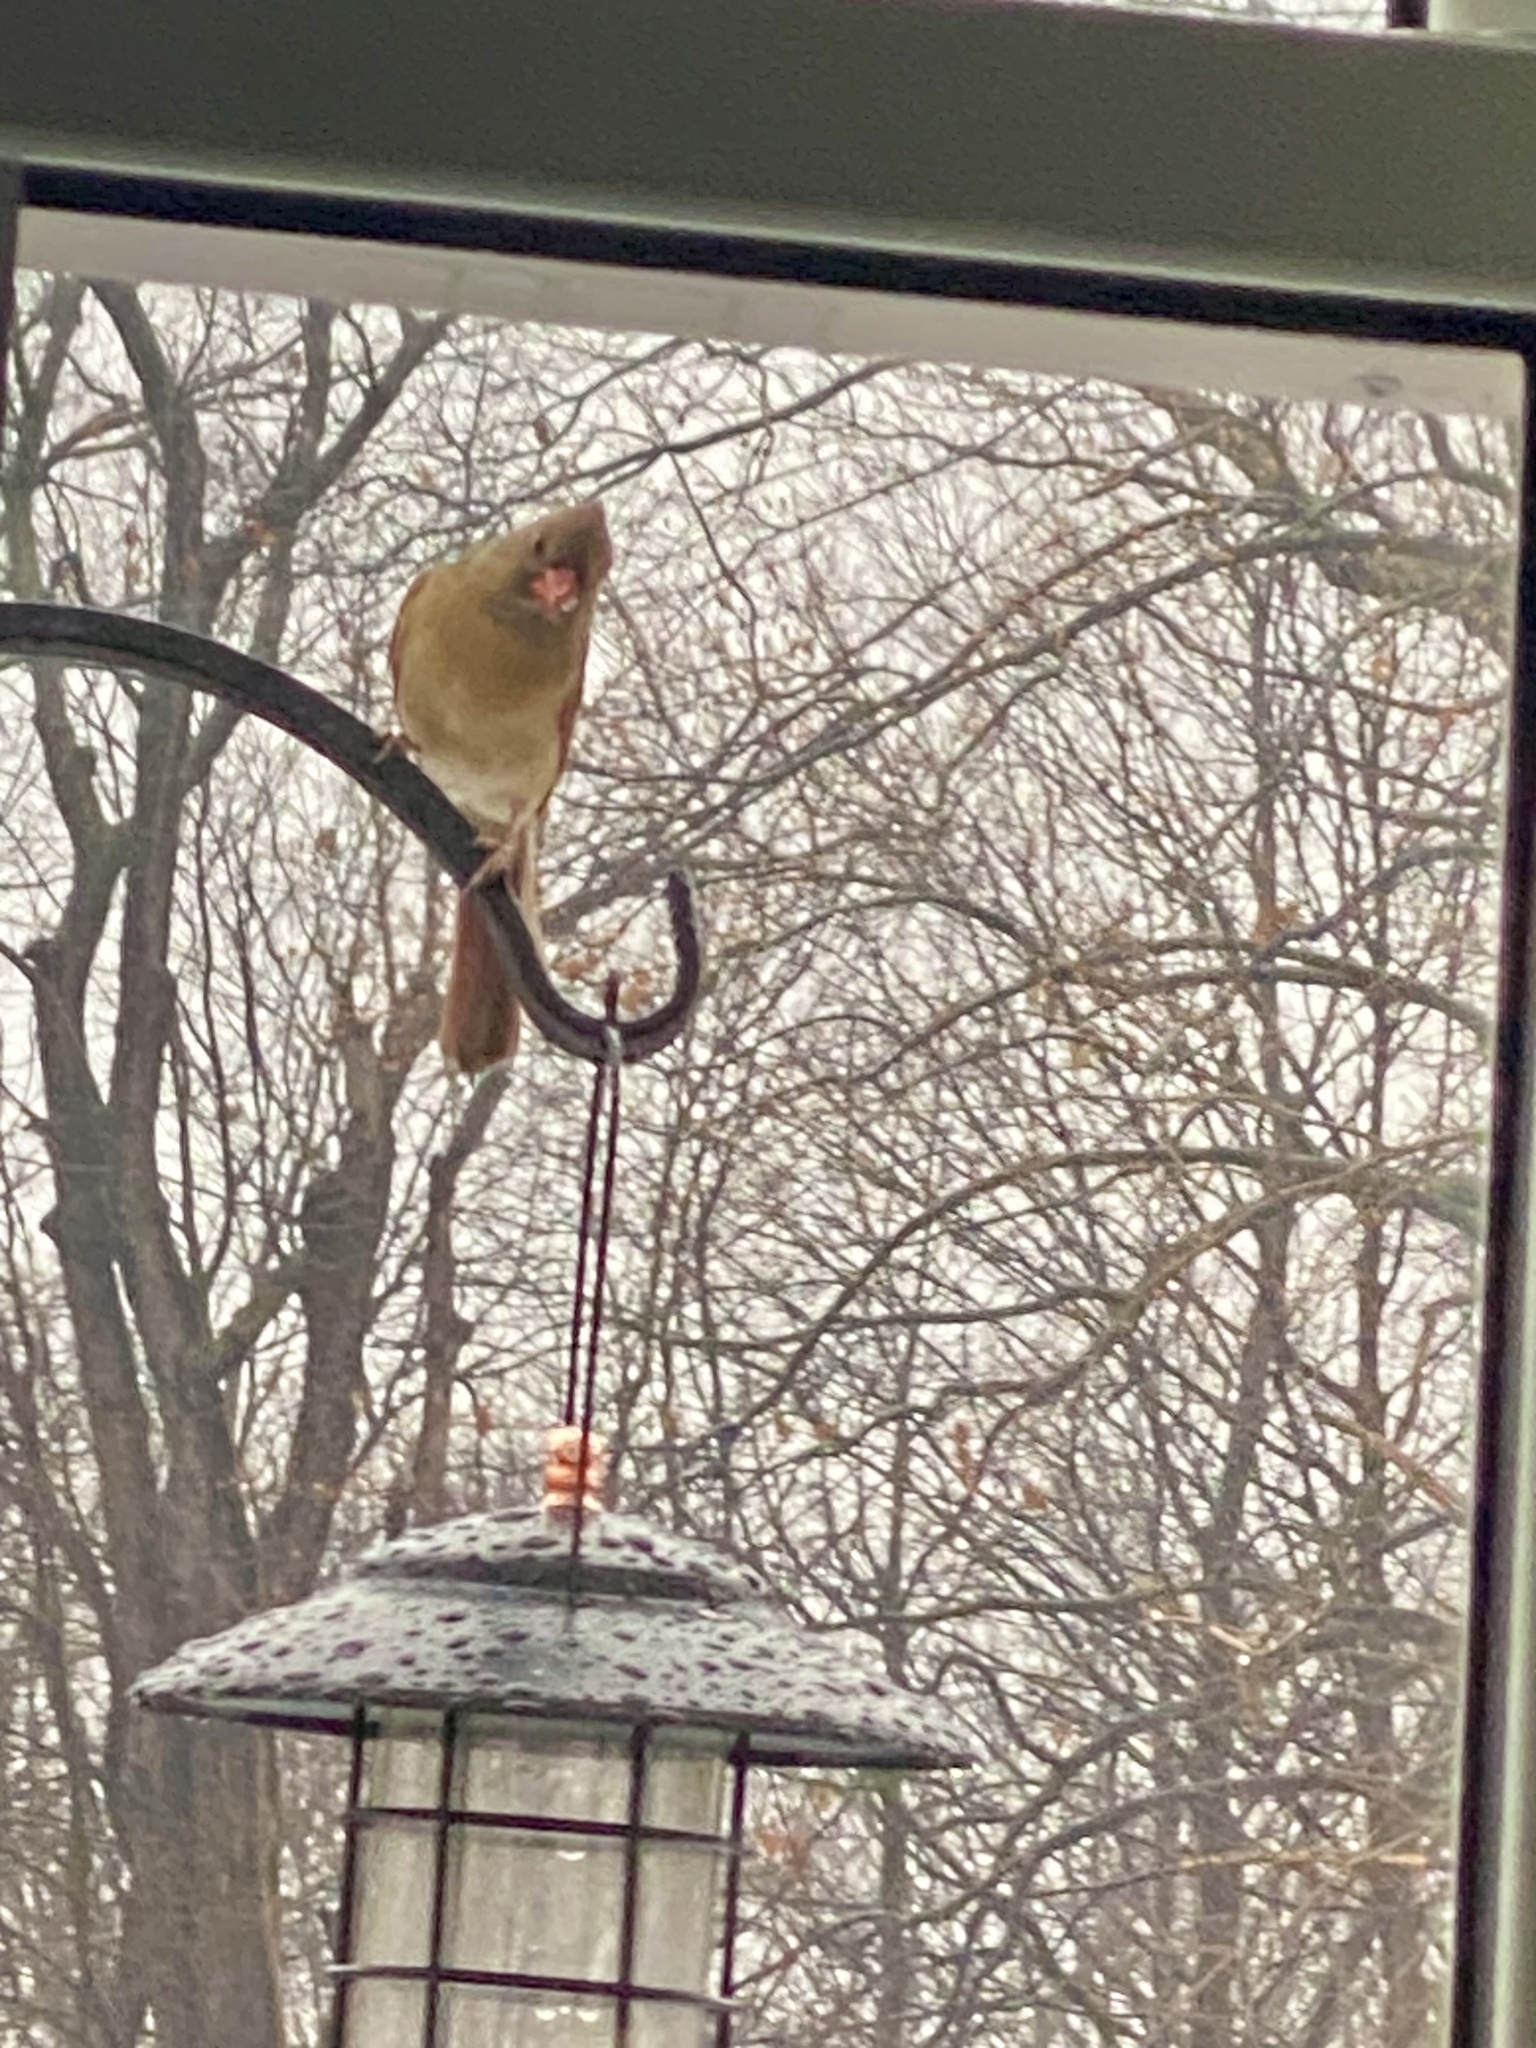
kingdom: Animalia
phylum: Chordata
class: Aves
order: Passeriformes
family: Cardinalidae
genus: Cardinalis
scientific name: Cardinalis cardinalis
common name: Northern cardinal
